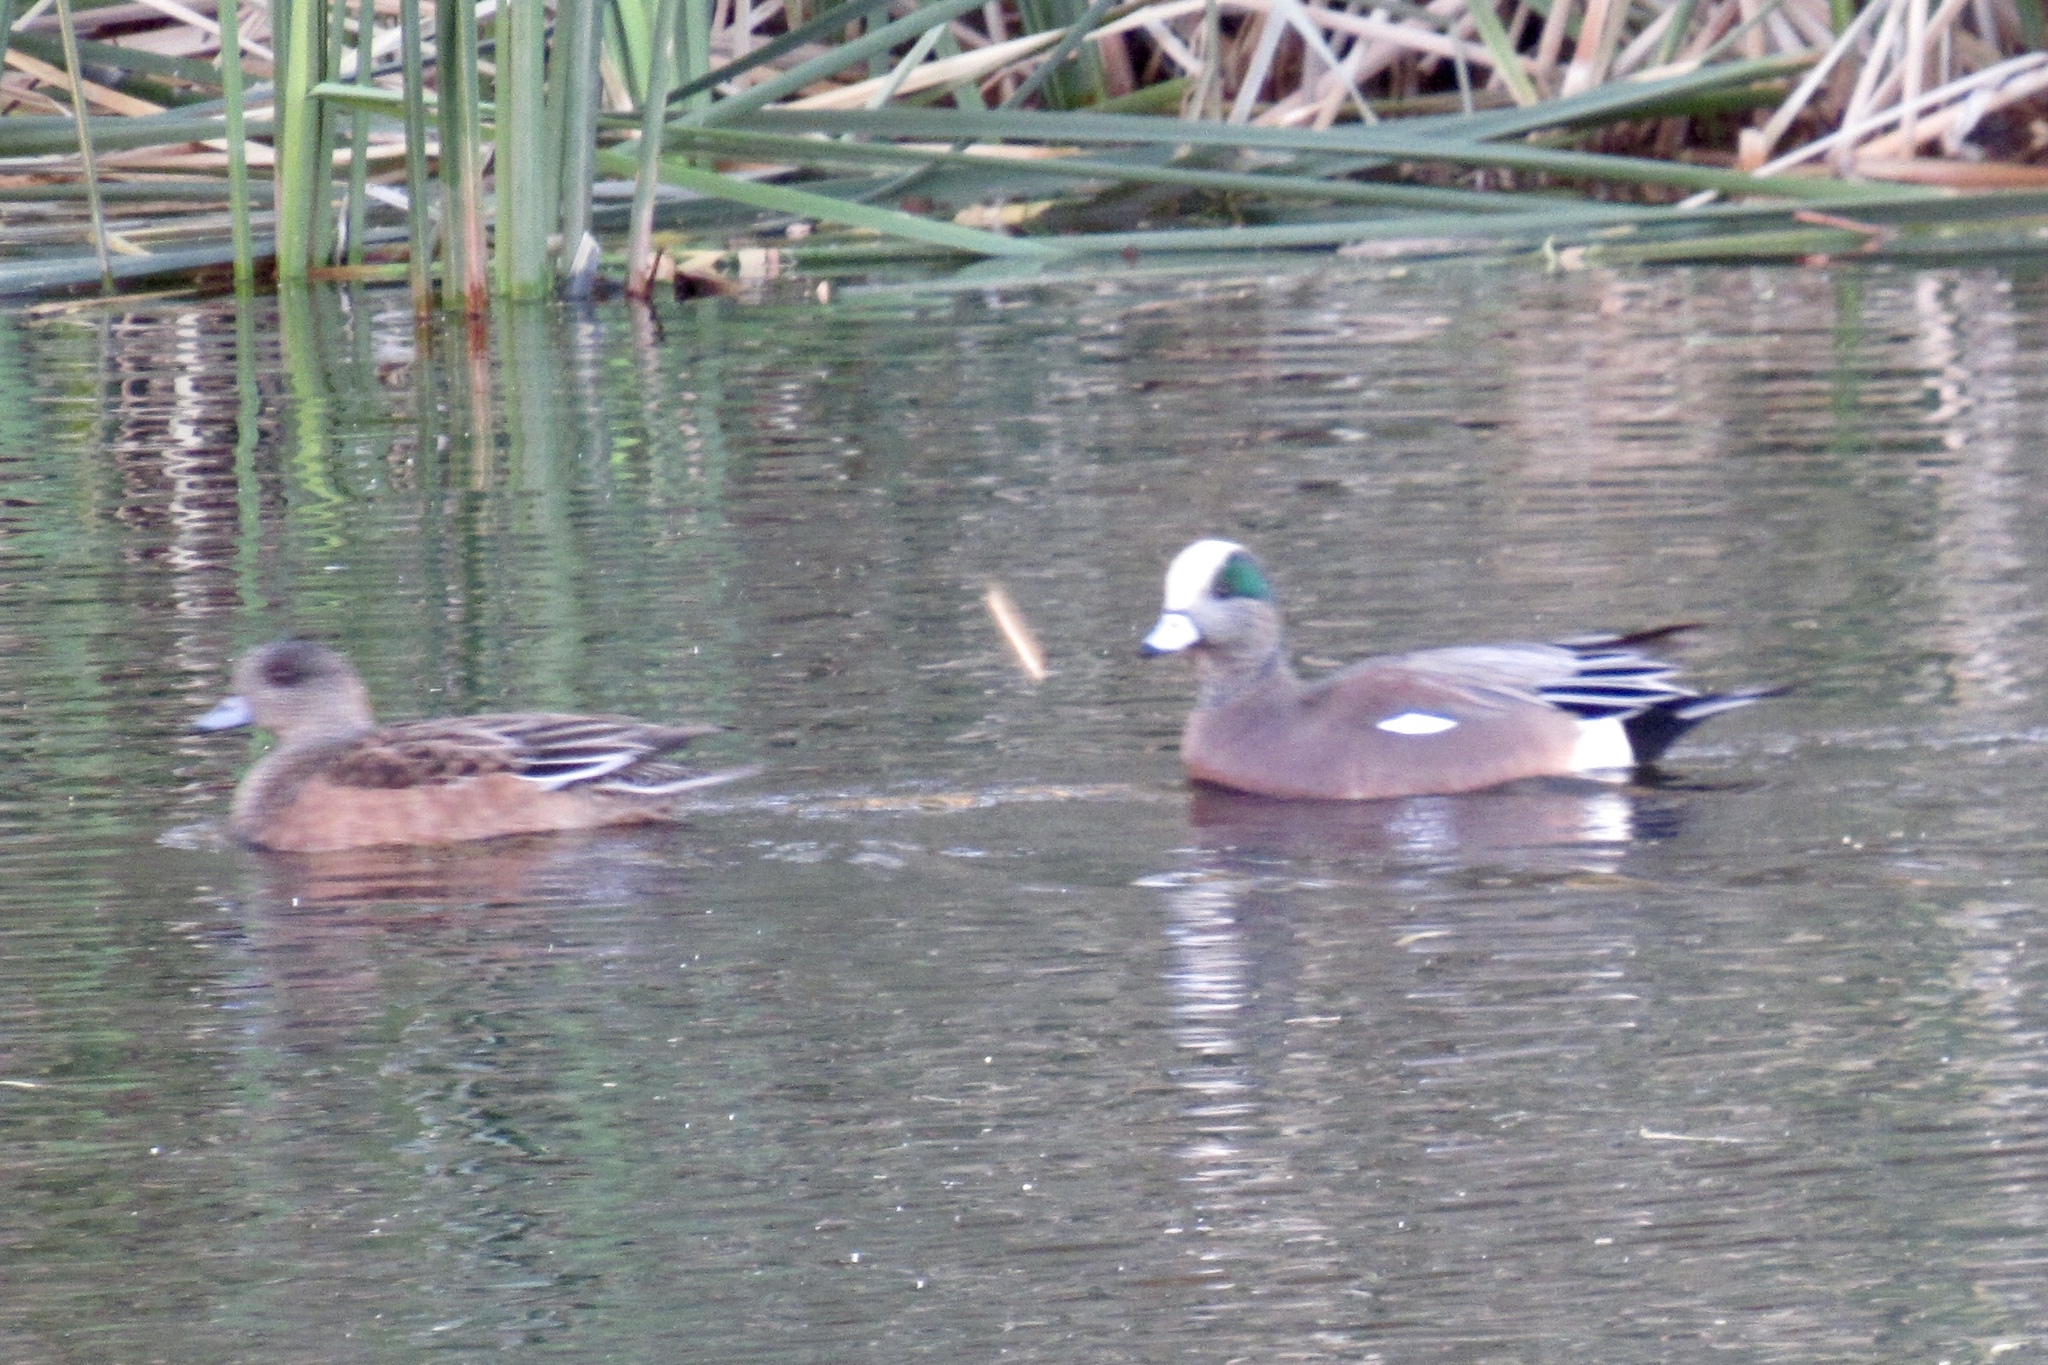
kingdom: Animalia
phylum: Chordata
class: Aves
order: Anseriformes
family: Anatidae
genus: Mareca
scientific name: Mareca americana
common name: American wigeon
